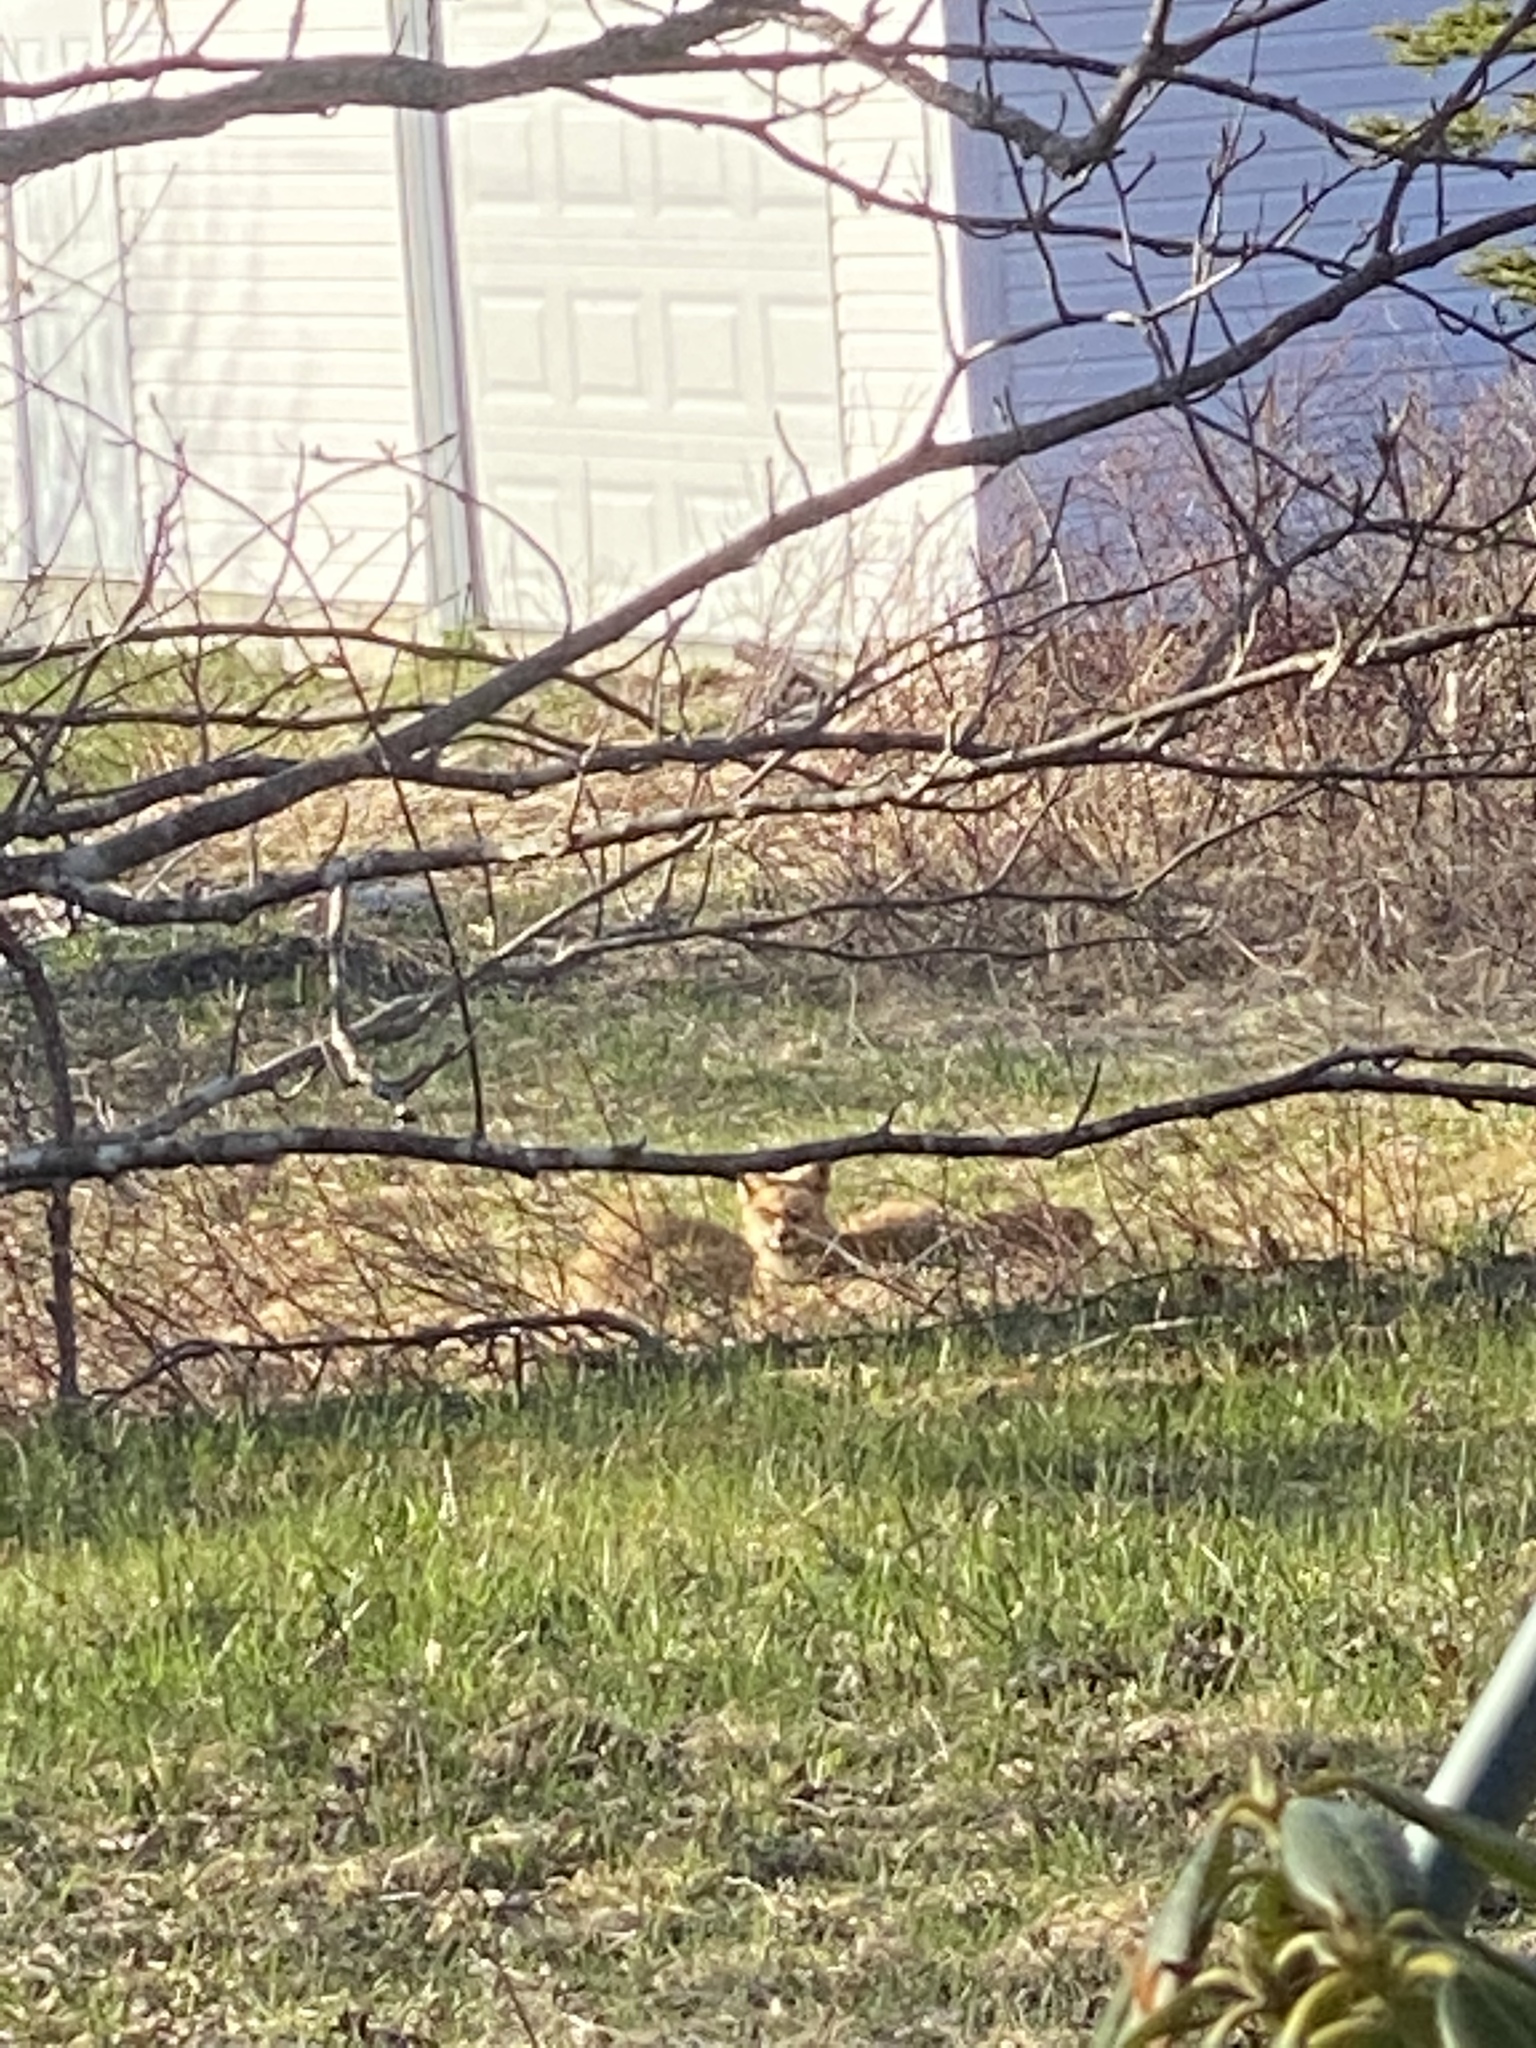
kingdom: Animalia
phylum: Chordata
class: Mammalia
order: Carnivora
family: Canidae
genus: Vulpes
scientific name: Vulpes vulpes
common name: Red fox
